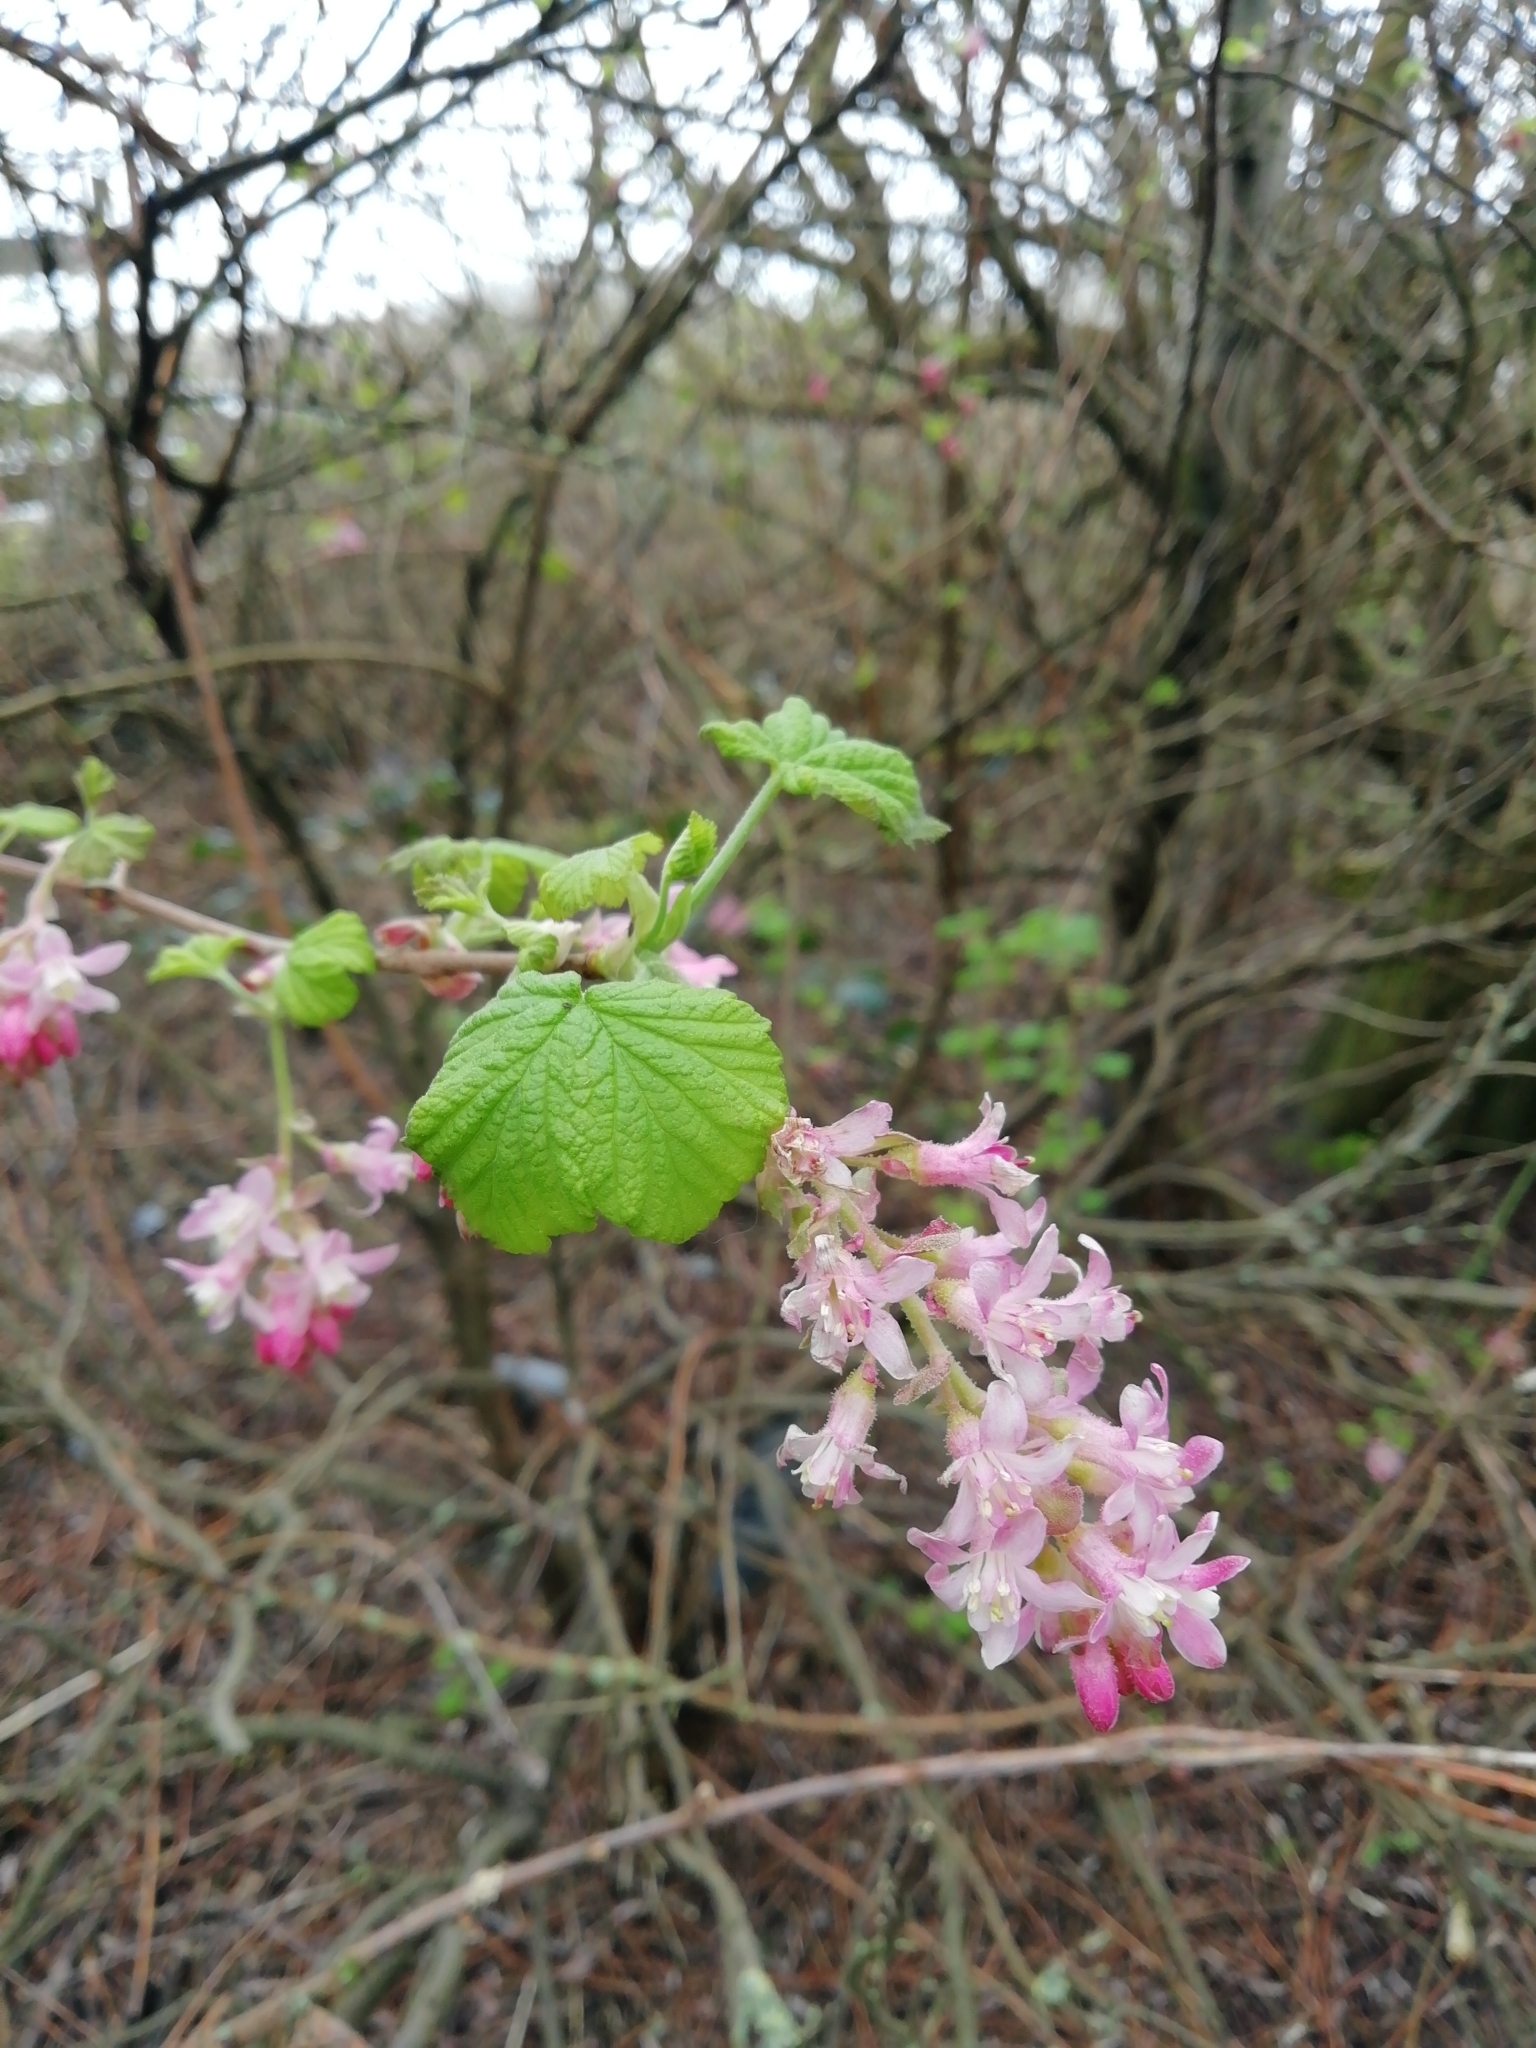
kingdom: Plantae
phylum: Tracheophyta
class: Magnoliopsida
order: Saxifragales
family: Grossulariaceae
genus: Ribes
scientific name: Ribes sanguineum
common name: Flowering currant
